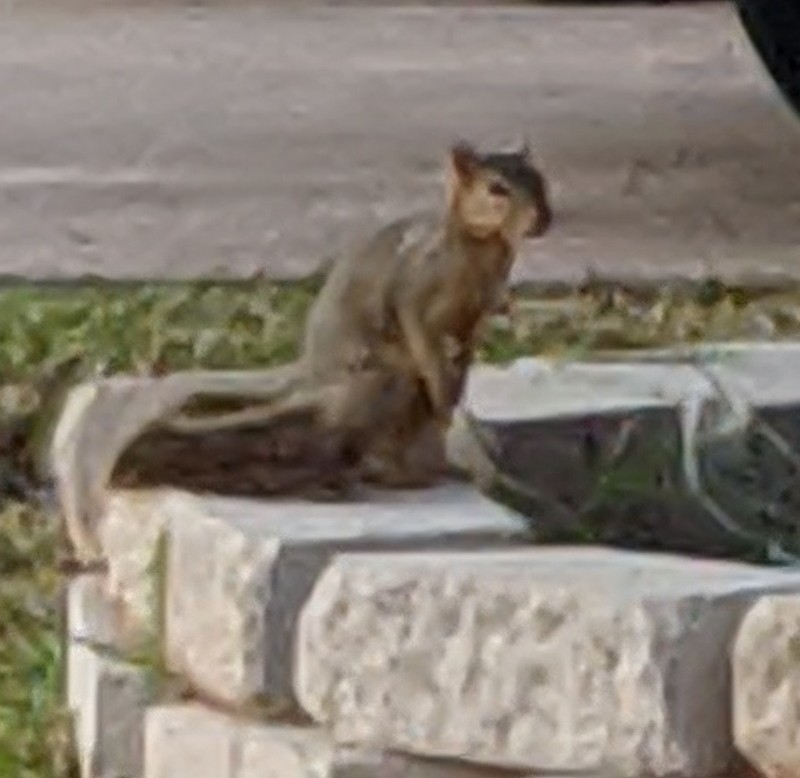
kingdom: Animalia
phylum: Chordata
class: Mammalia
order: Rodentia
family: Sciuridae
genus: Sciurus
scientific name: Sciurus niger
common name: Fox squirrel
